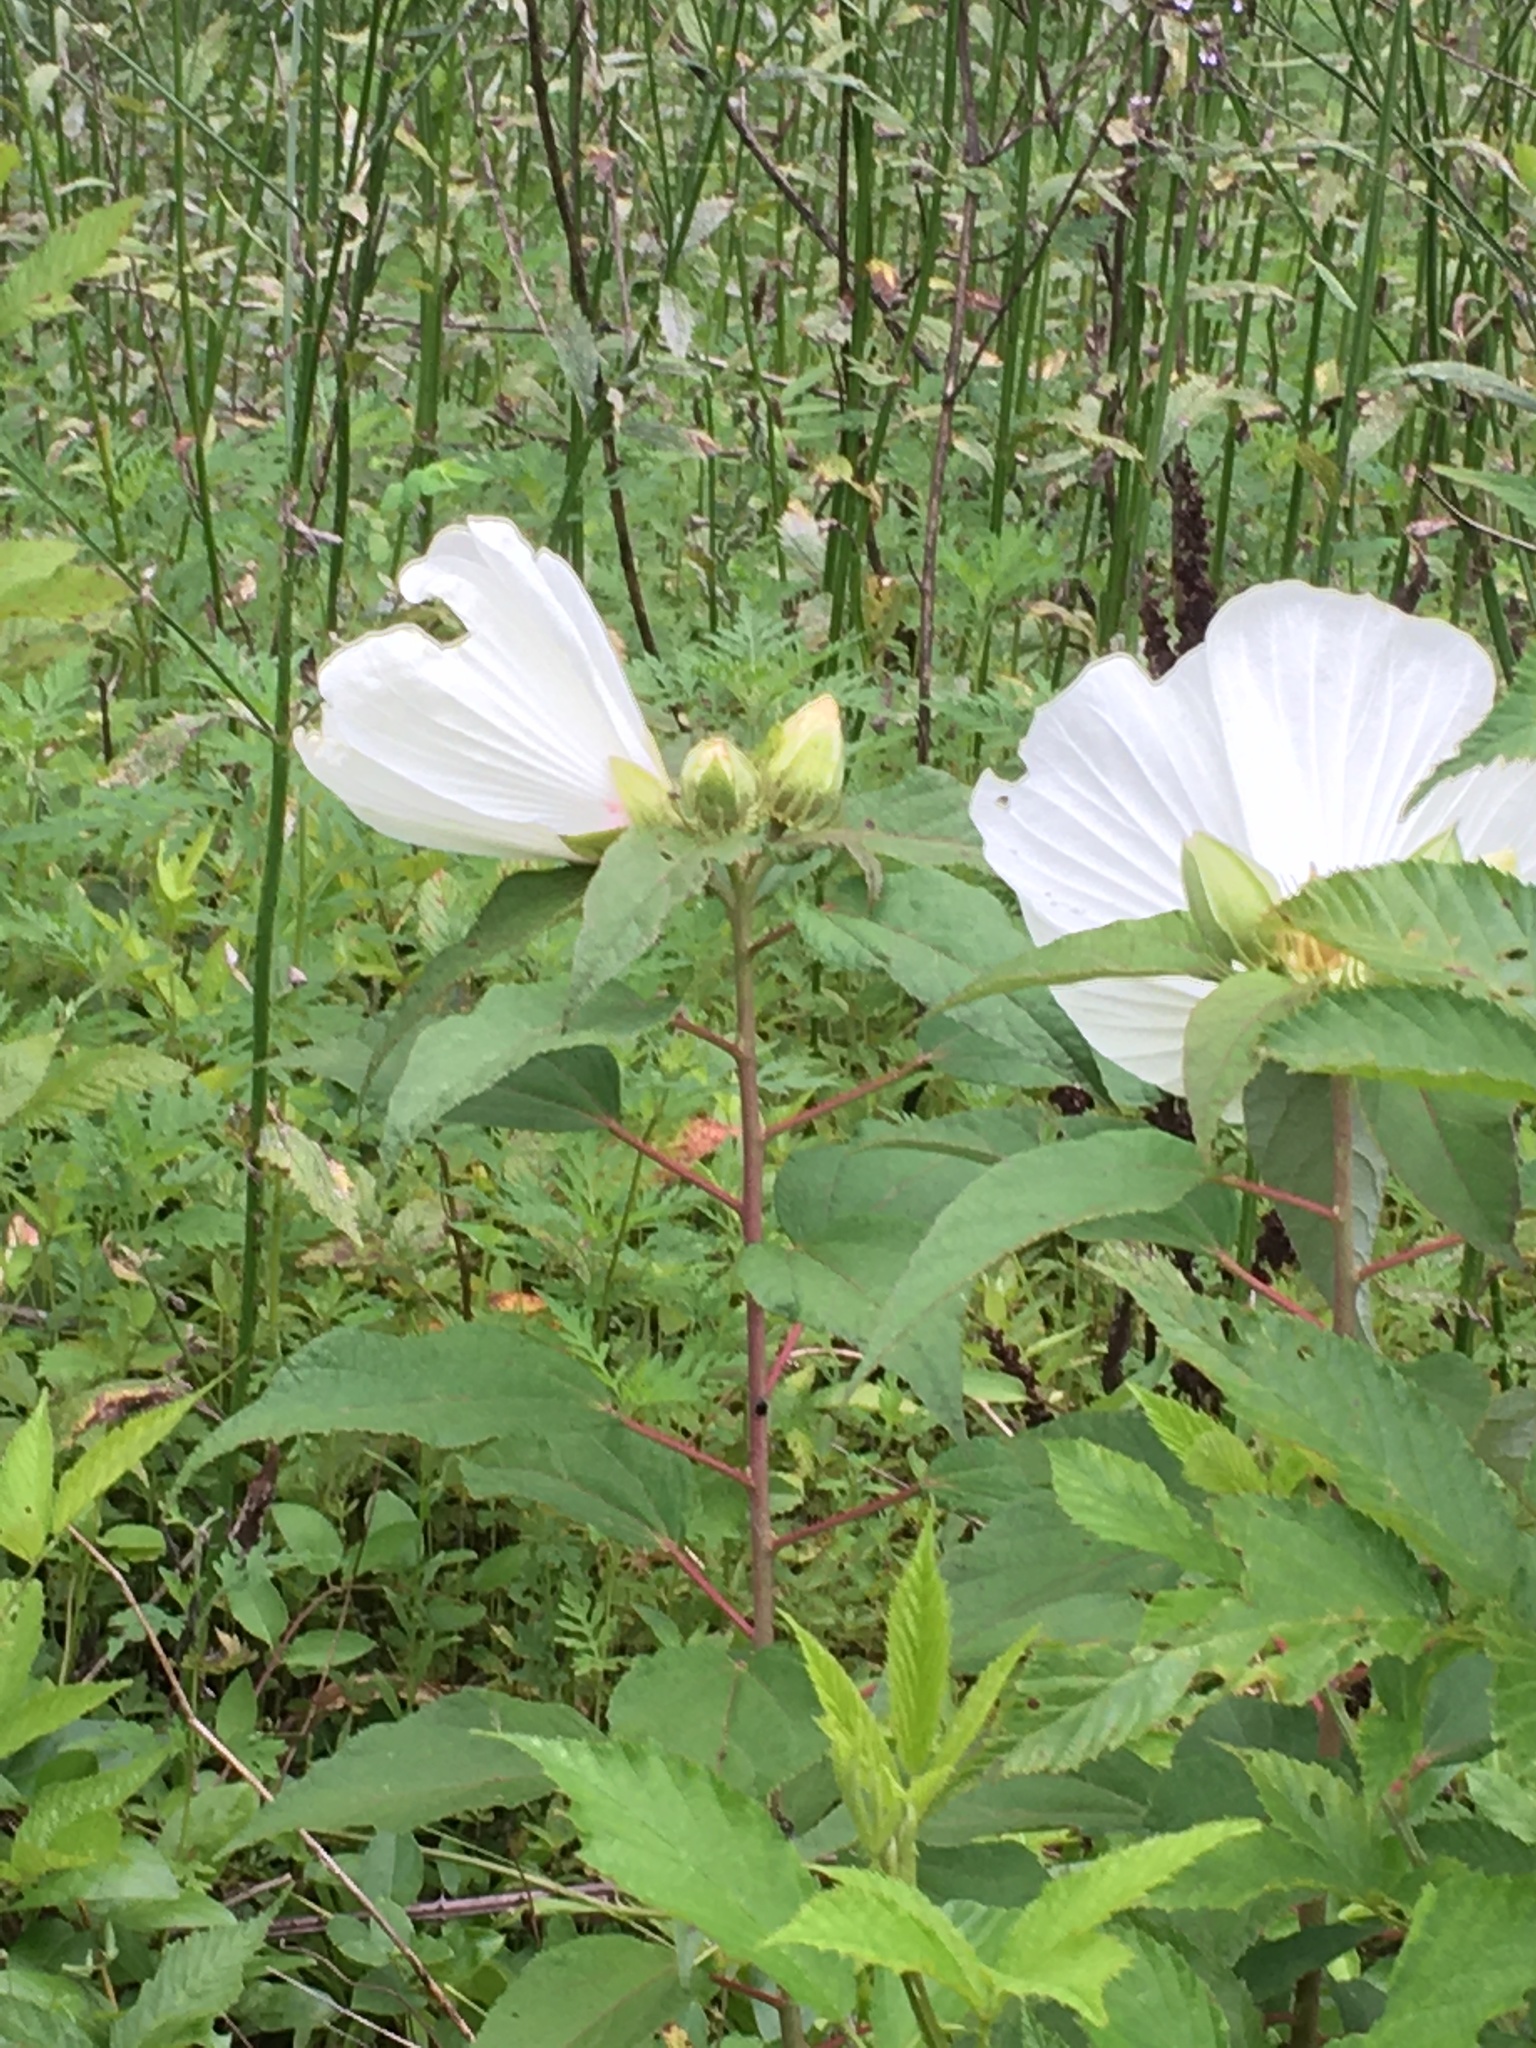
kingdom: Plantae
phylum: Tracheophyta
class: Magnoliopsida
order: Malvales
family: Malvaceae
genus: Hibiscus
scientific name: Hibiscus moscheutos
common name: Common rose-mallow
